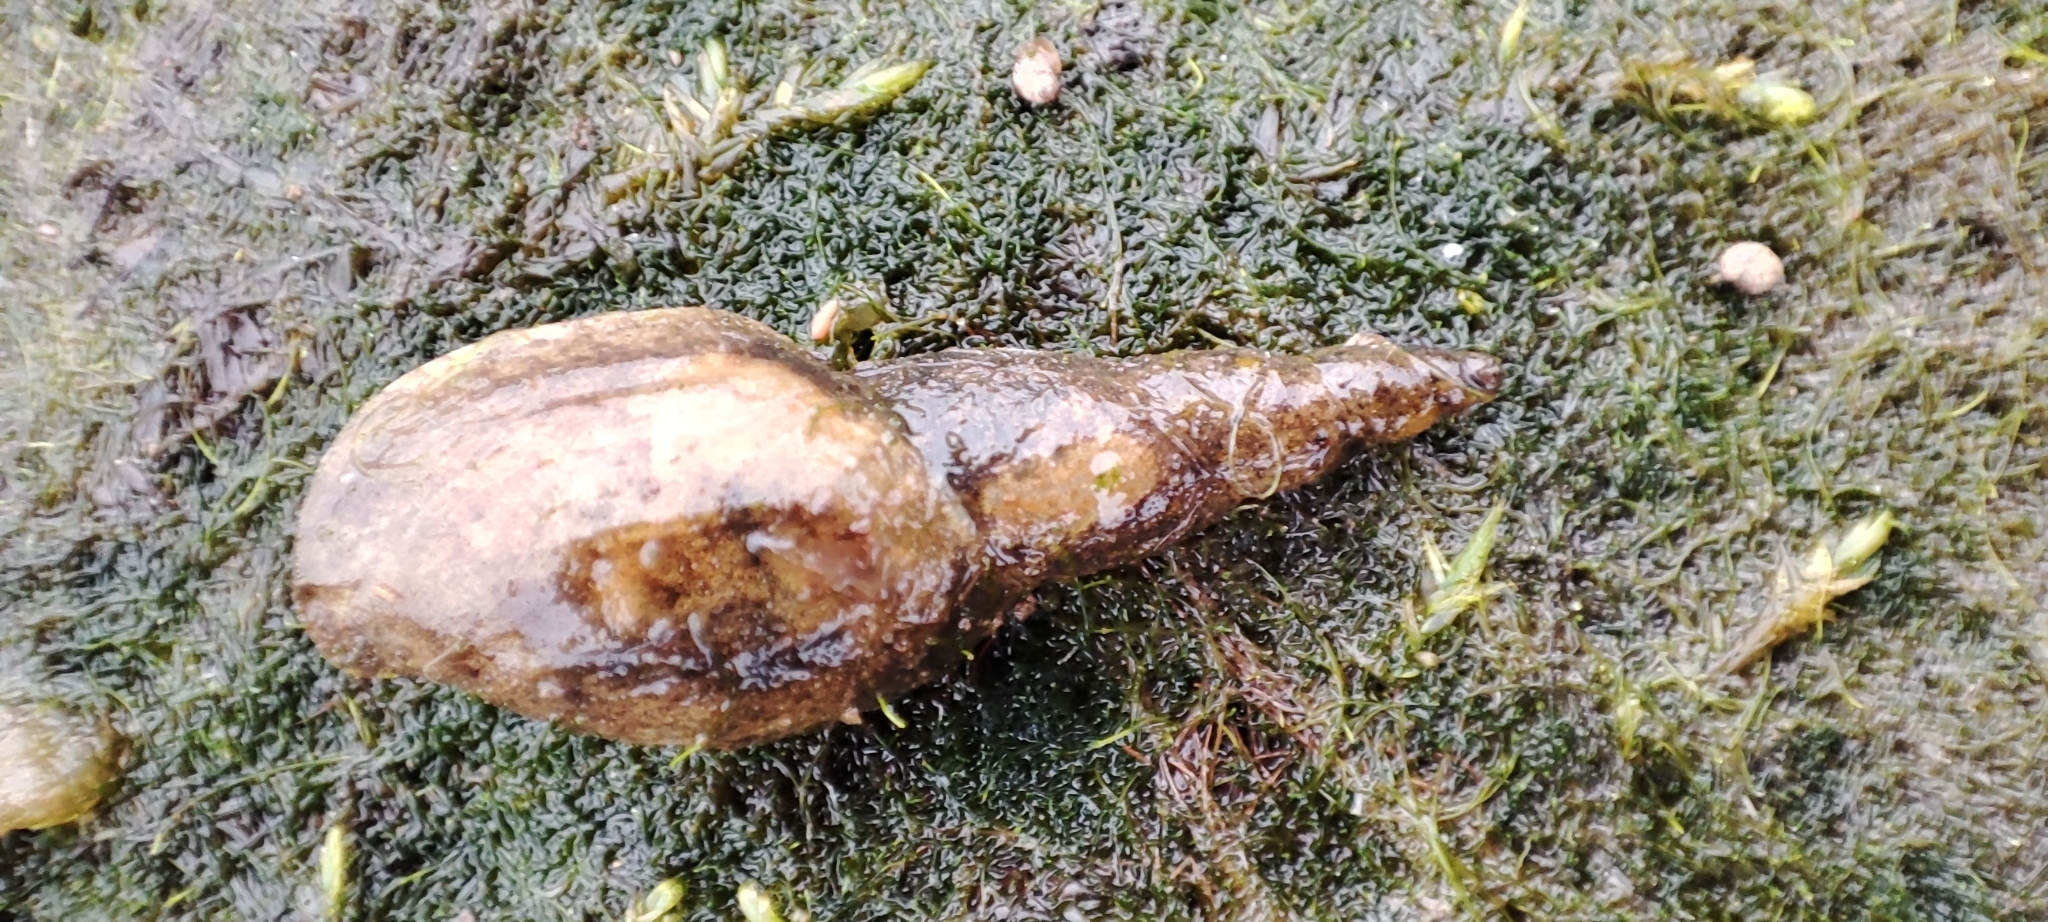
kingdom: Animalia
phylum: Mollusca
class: Gastropoda
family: Lymnaeidae
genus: Lymnaea
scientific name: Lymnaea stagnalis
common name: Great pond snail
